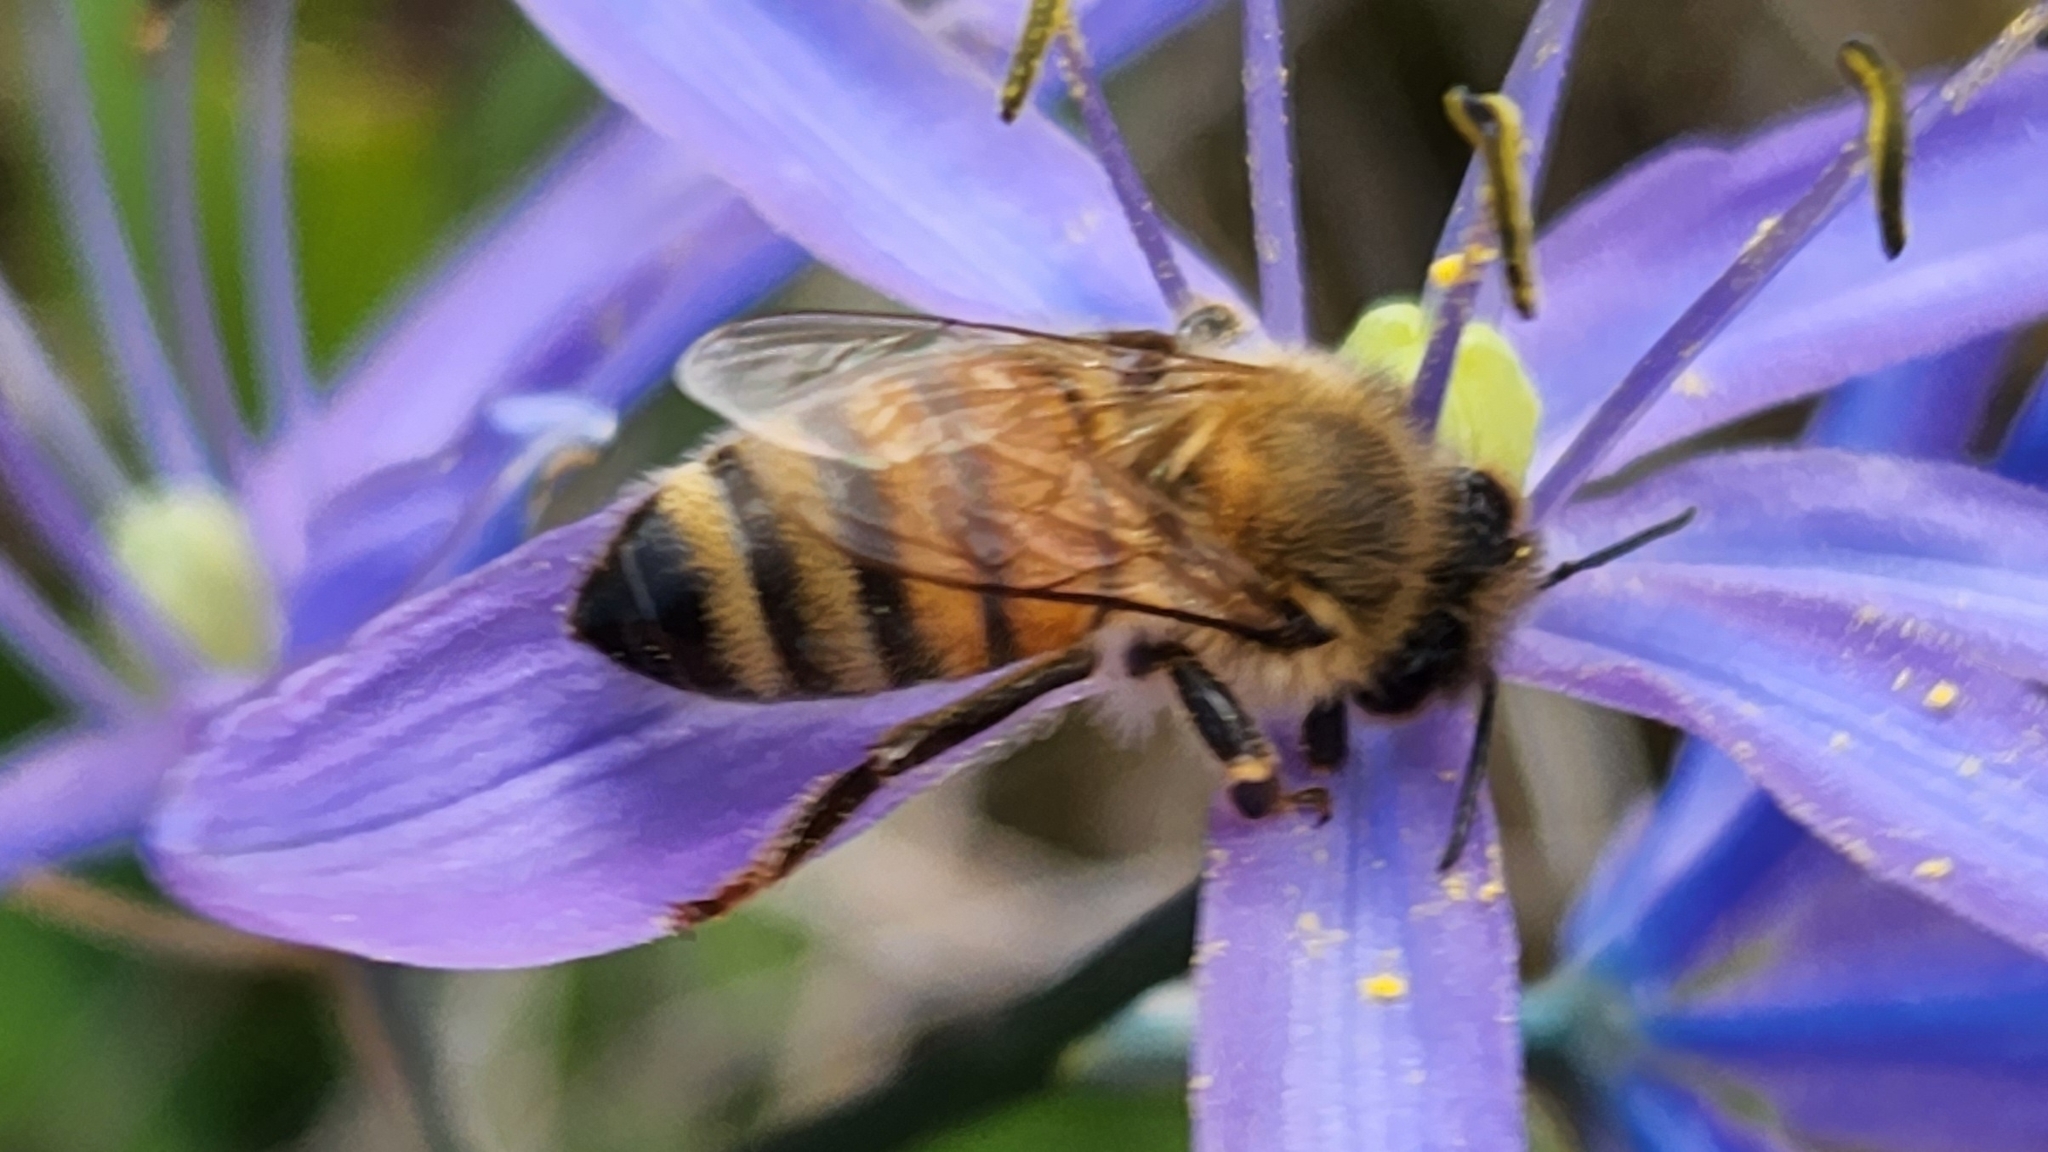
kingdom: Animalia
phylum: Arthropoda
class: Insecta
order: Hymenoptera
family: Apidae
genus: Apis
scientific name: Apis mellifera
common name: Honey bee
